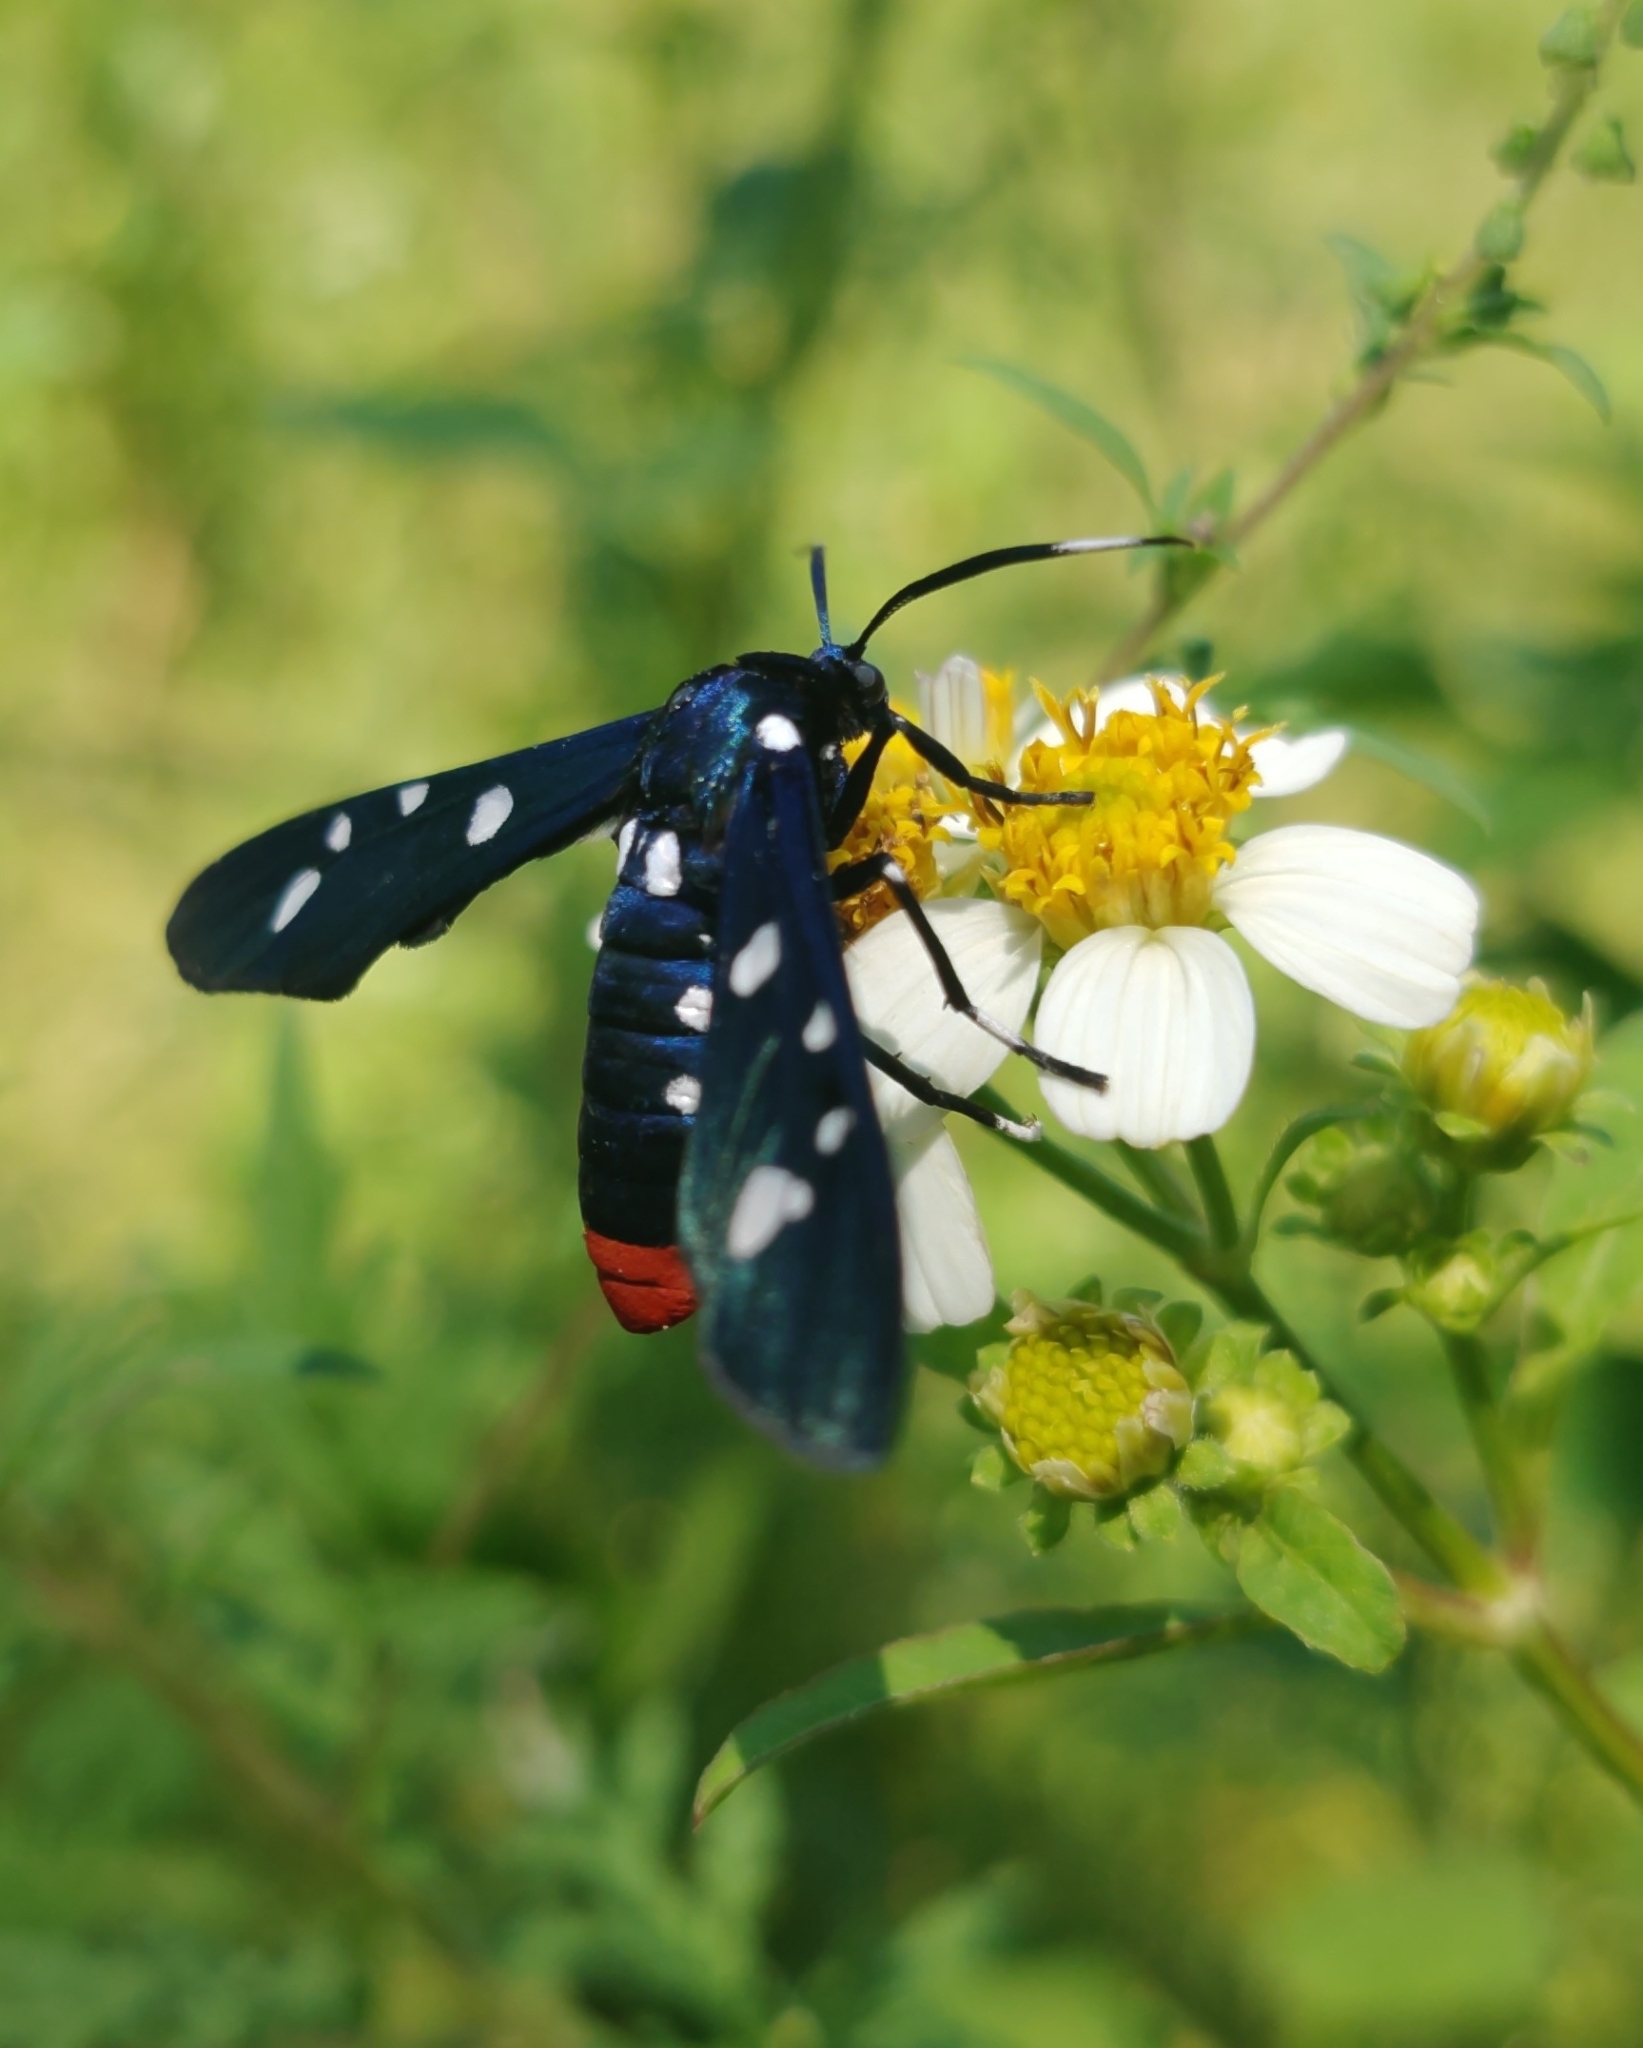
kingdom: Animalia
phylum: Arthropoda
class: Insecta
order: Lepidoptera
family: Erebidae
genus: Syntomeida
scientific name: Syntomeida epilais
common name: Polka-dot wasp moth
